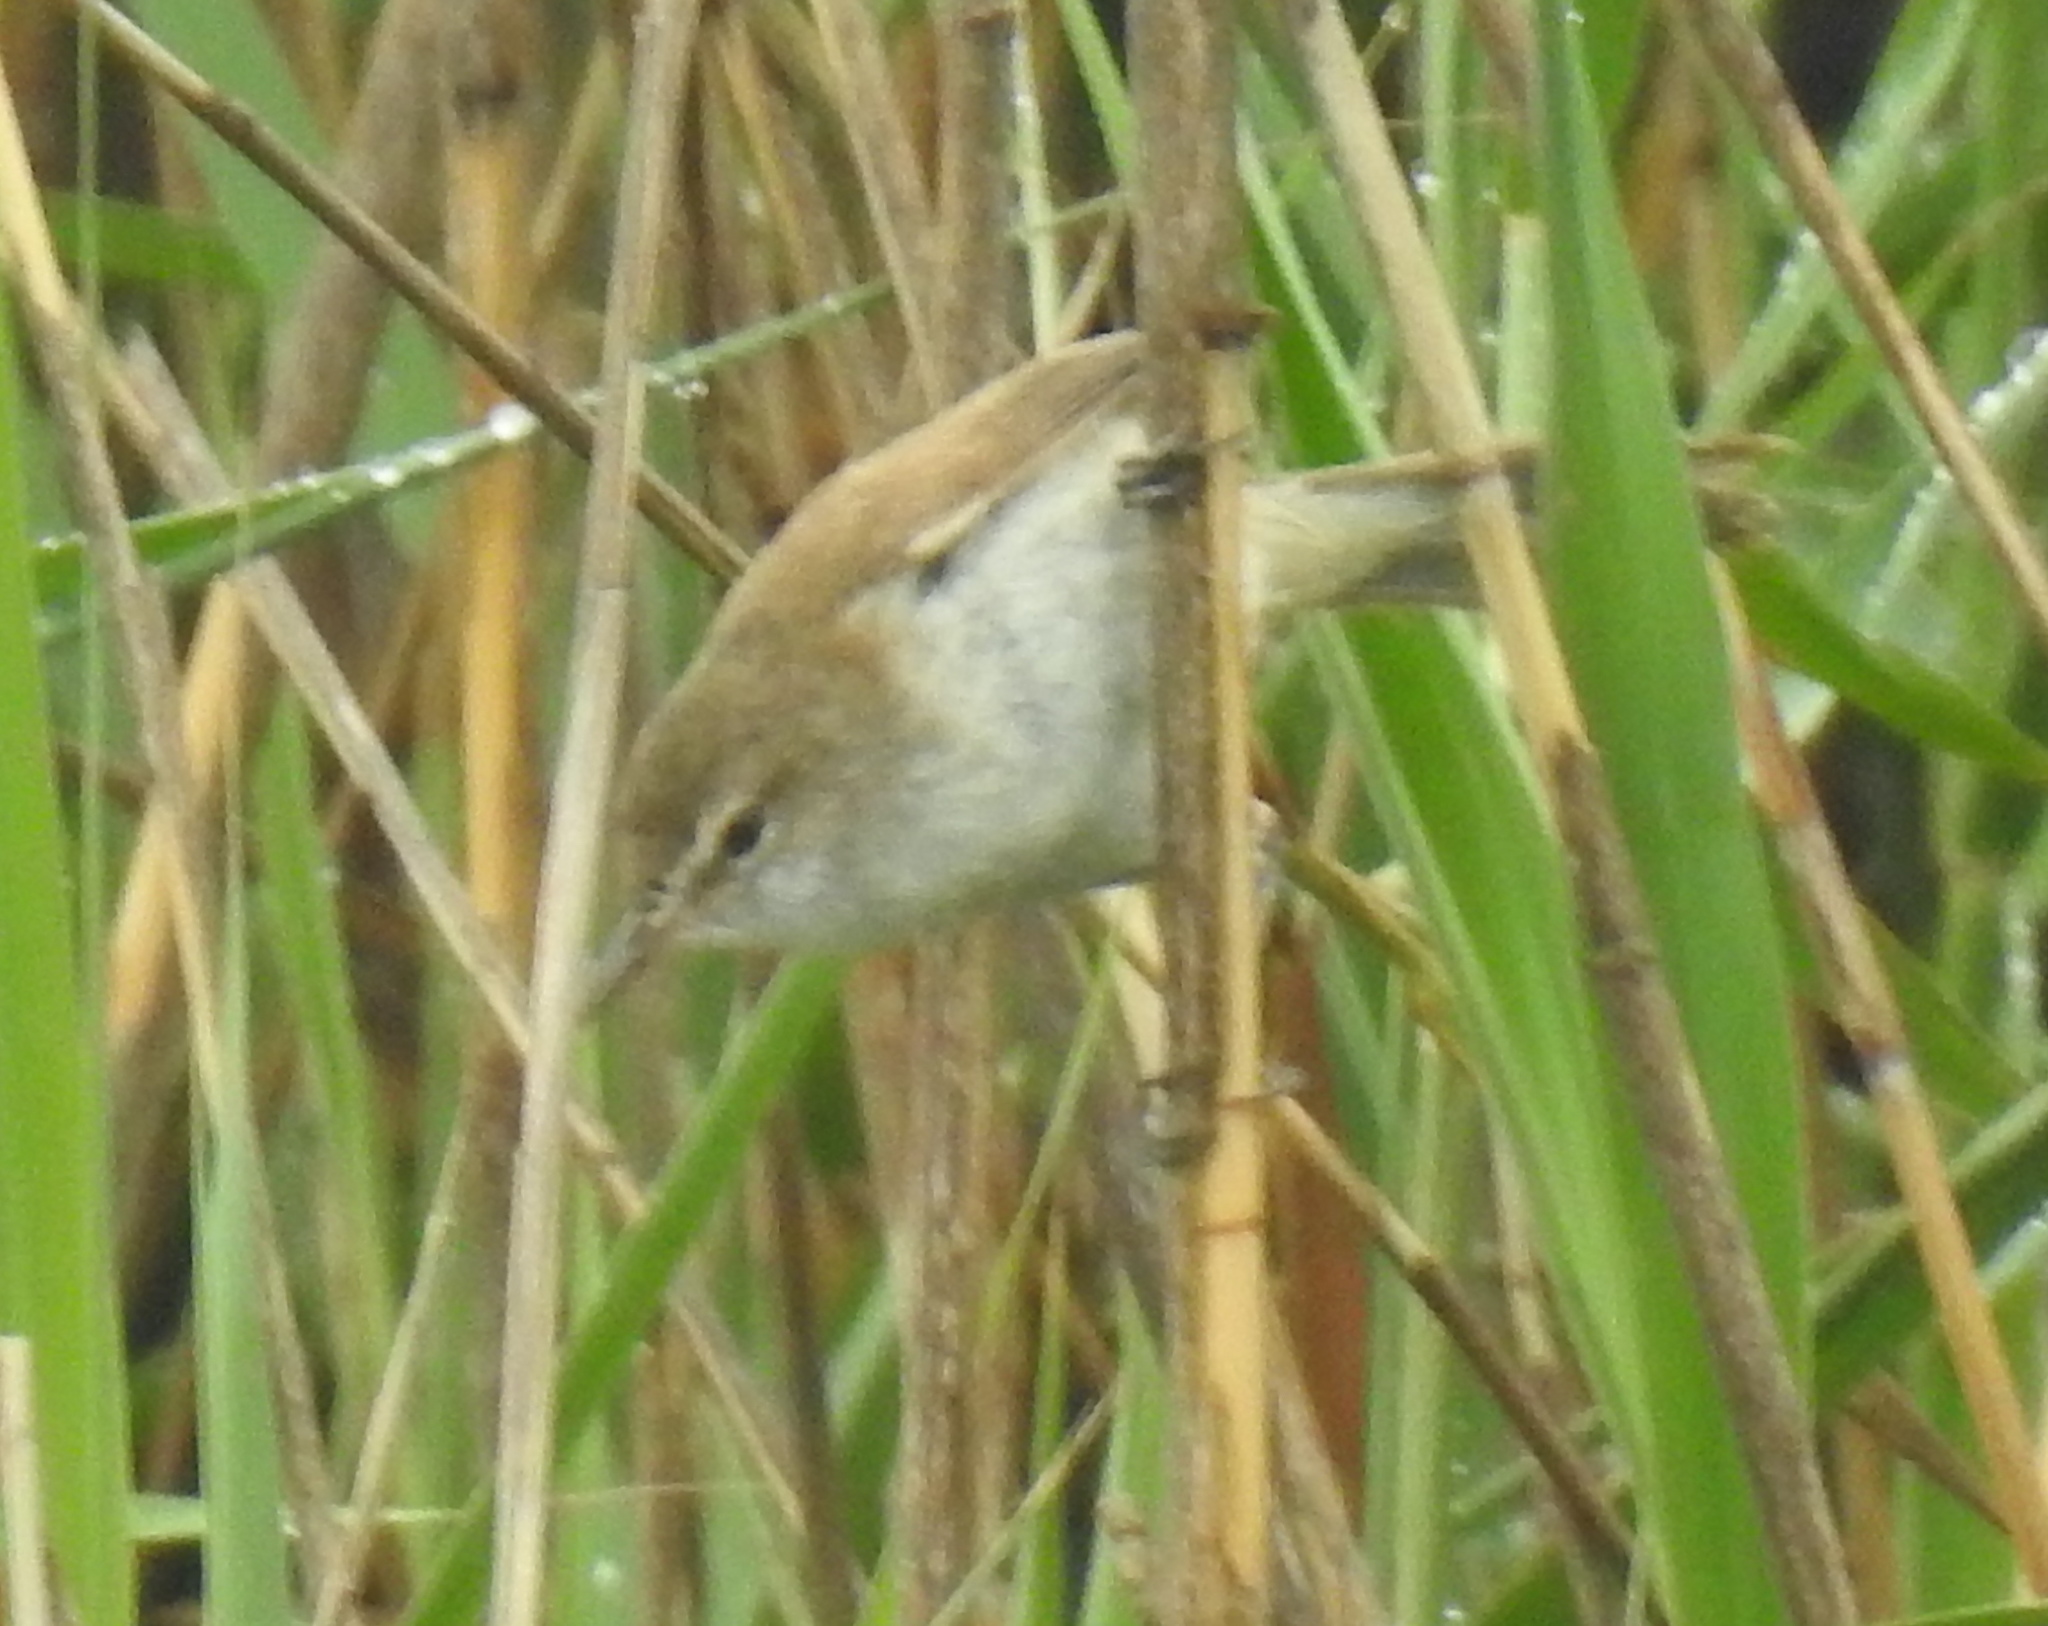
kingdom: Animalia
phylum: Chordata
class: Aves
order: Passeriformes
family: Acrocephalidae
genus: Acrocephalus
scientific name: Acrocephalus gracilirostris
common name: Lesser swamp warbler
